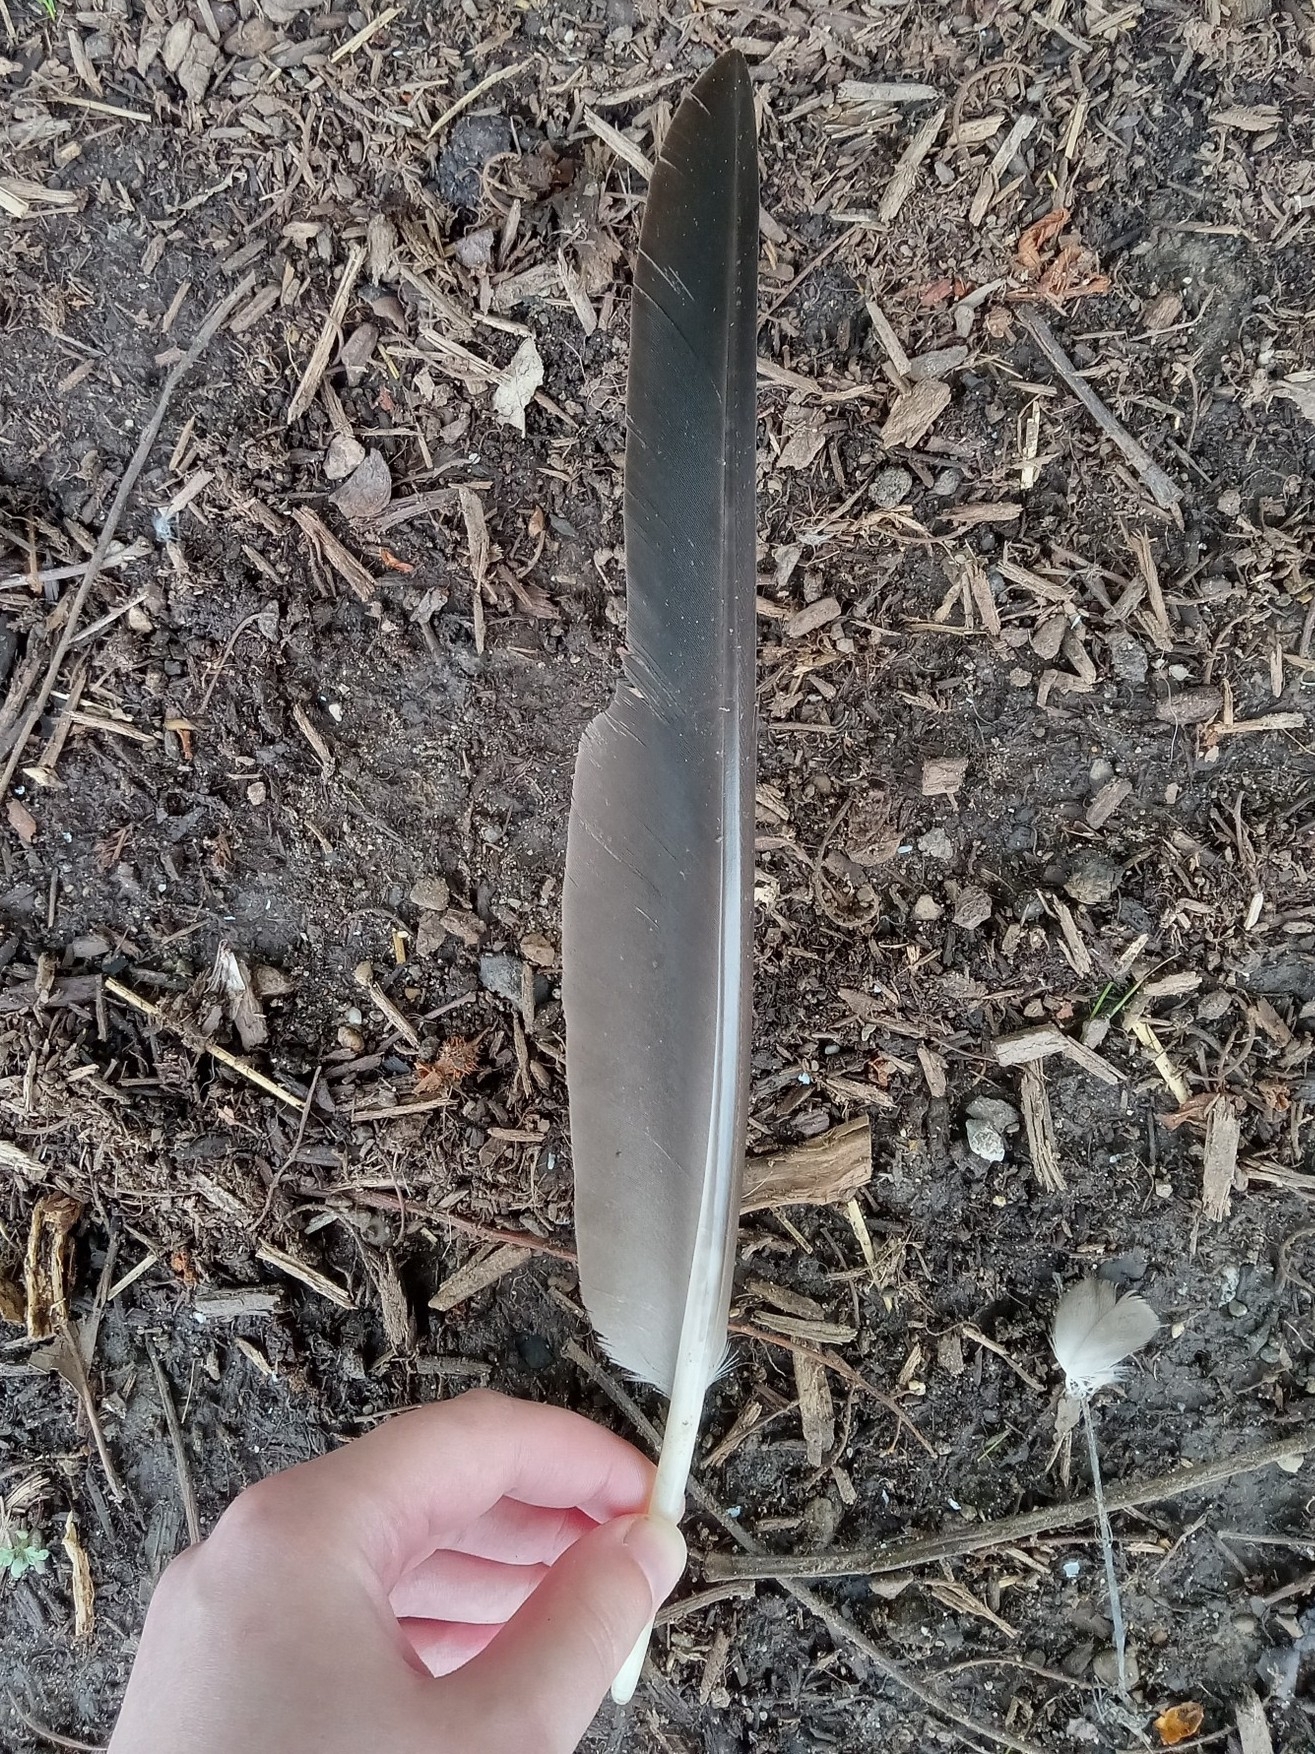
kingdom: Animalia
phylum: Chordata
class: Aves
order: Anseriformes
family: Anatidae
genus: Branta
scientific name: Branta canadensis
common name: Canada goose
